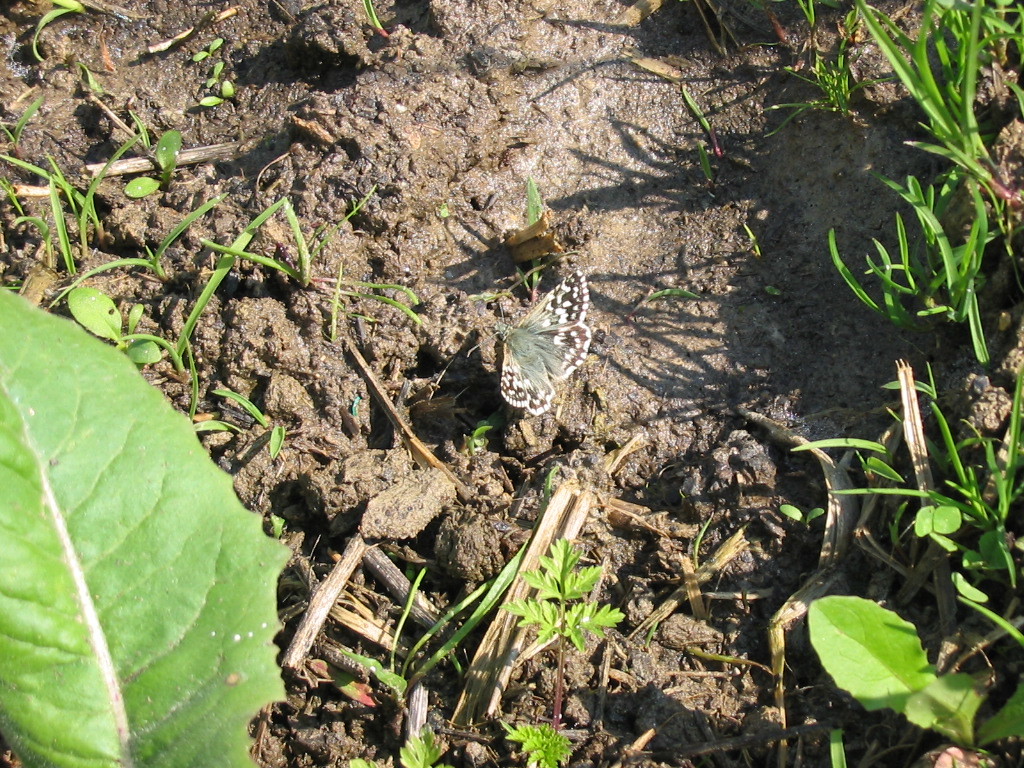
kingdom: Animalia
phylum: Arthropoda
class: Insecta
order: Lepidoptera
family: Hesperiidae
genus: Pyrgus
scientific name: Pyrgus malvae
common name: Grizzled skipper
